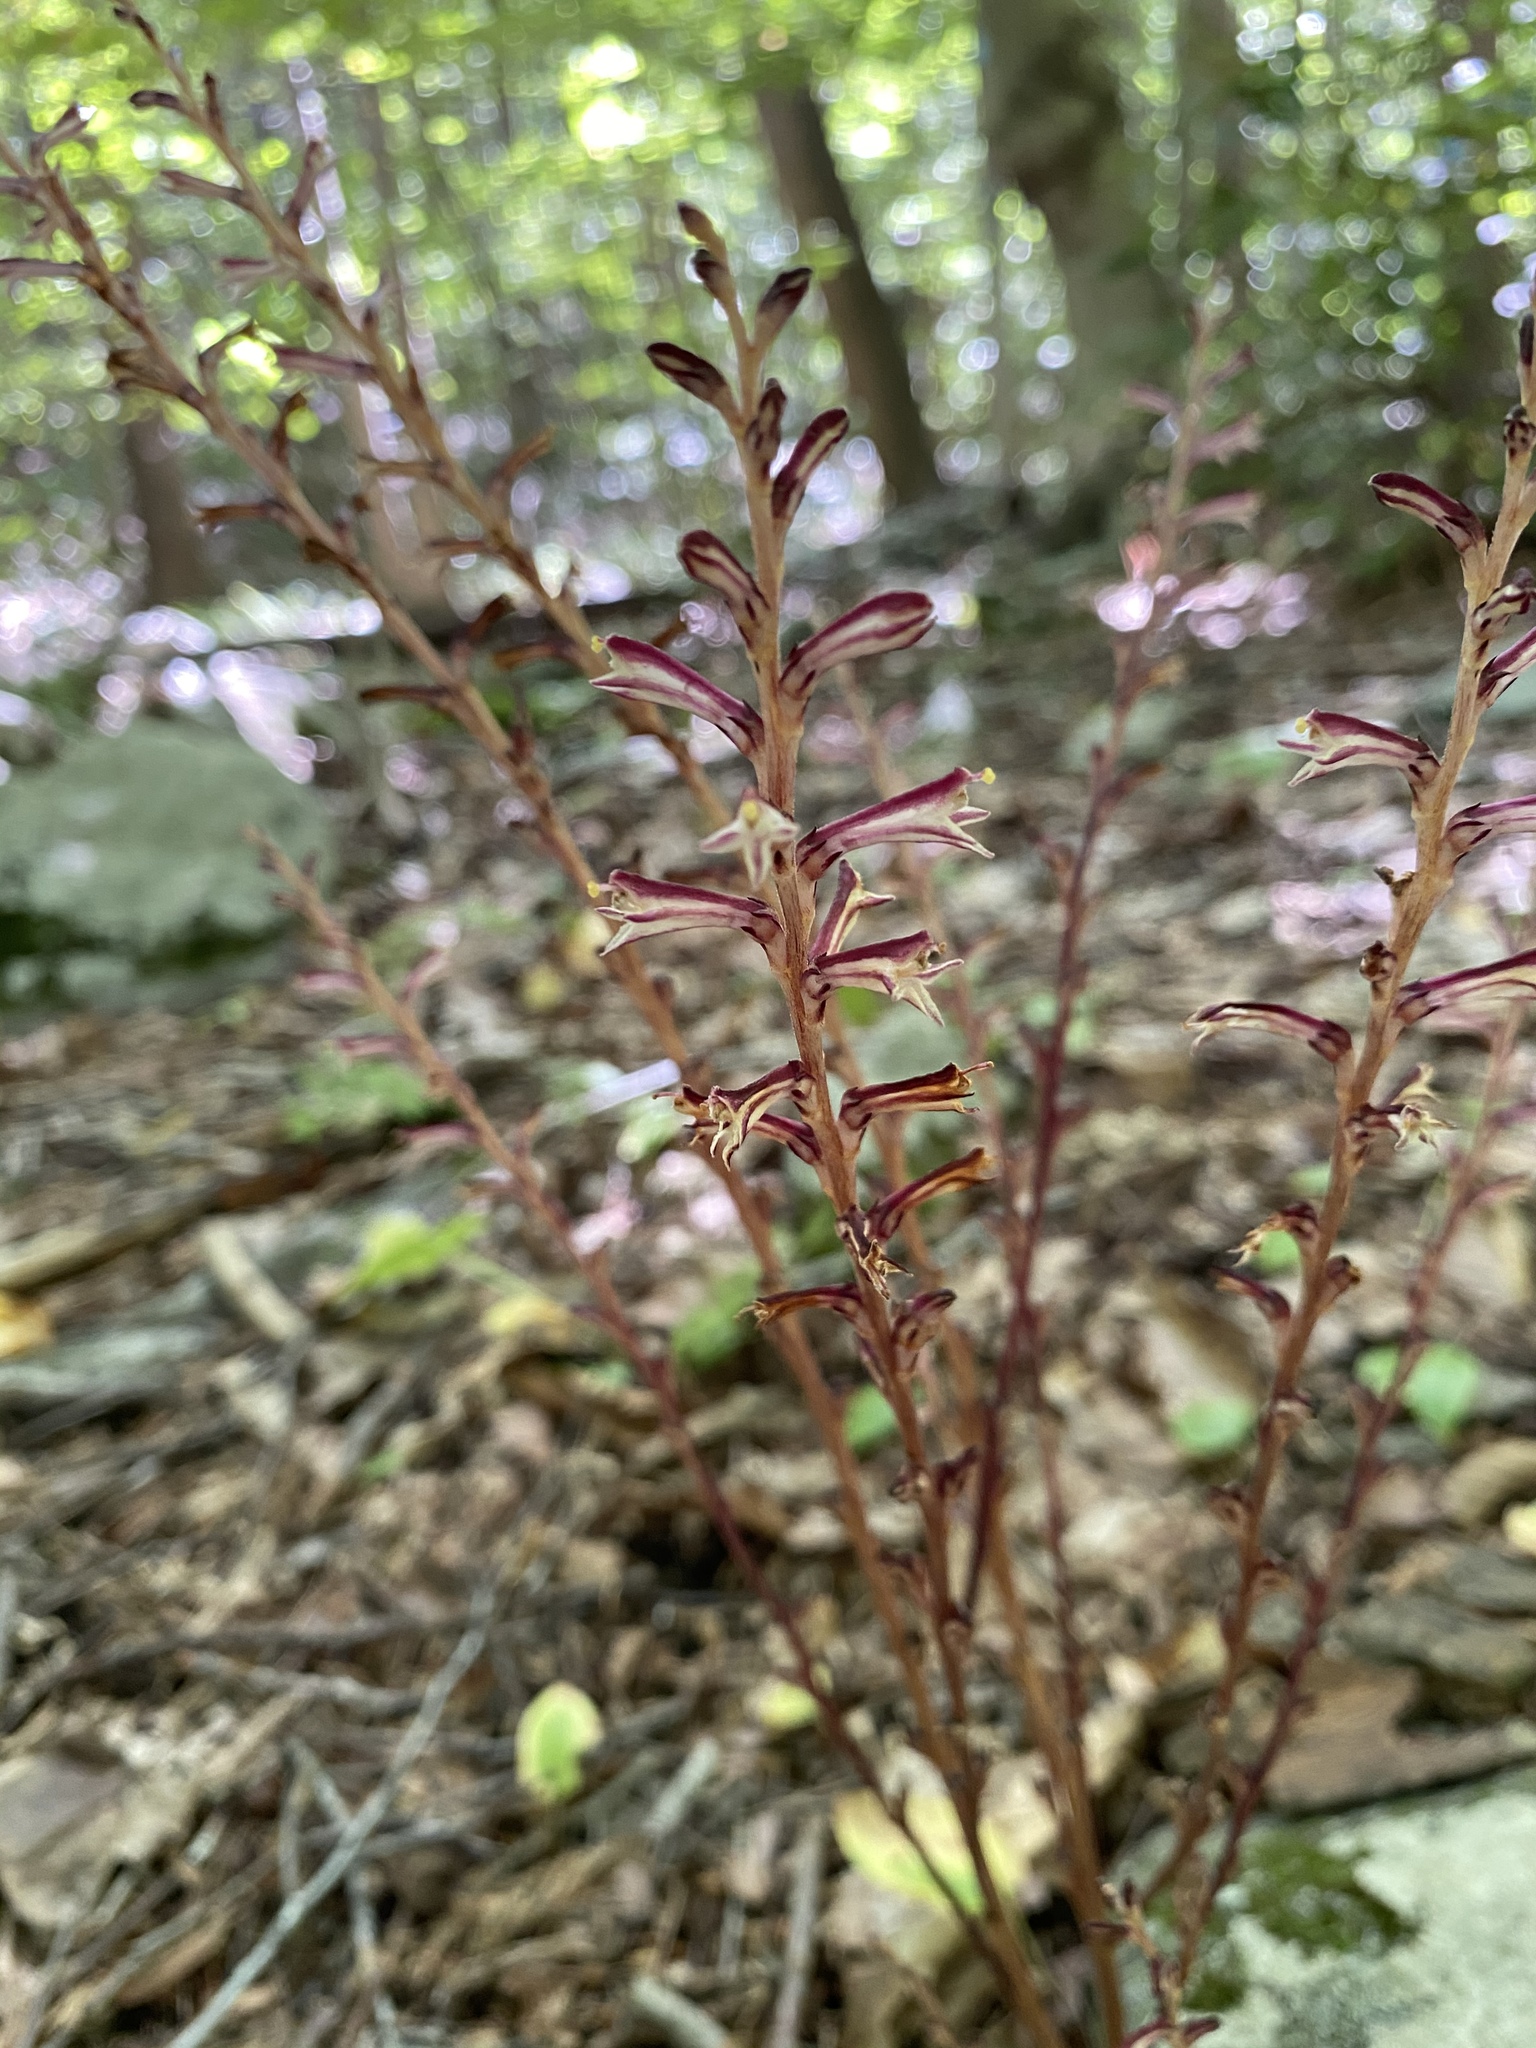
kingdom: Plantae
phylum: Tracheophyta
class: Magnoliopsida
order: Lamiales
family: Orobanchaceae
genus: Epifagus
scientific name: Epifagus virginiana
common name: Beechdrops
